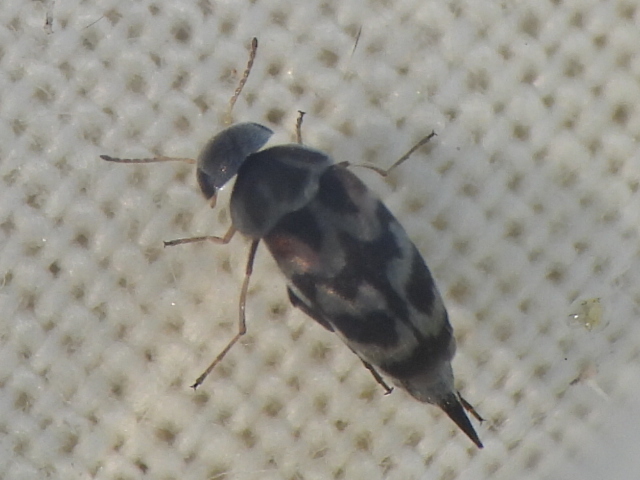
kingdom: Animalia
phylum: Arthropoda
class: Insecta
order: Coleoptera
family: Mordellidae
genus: Paramordellaria
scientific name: Paramordellaria carinata
